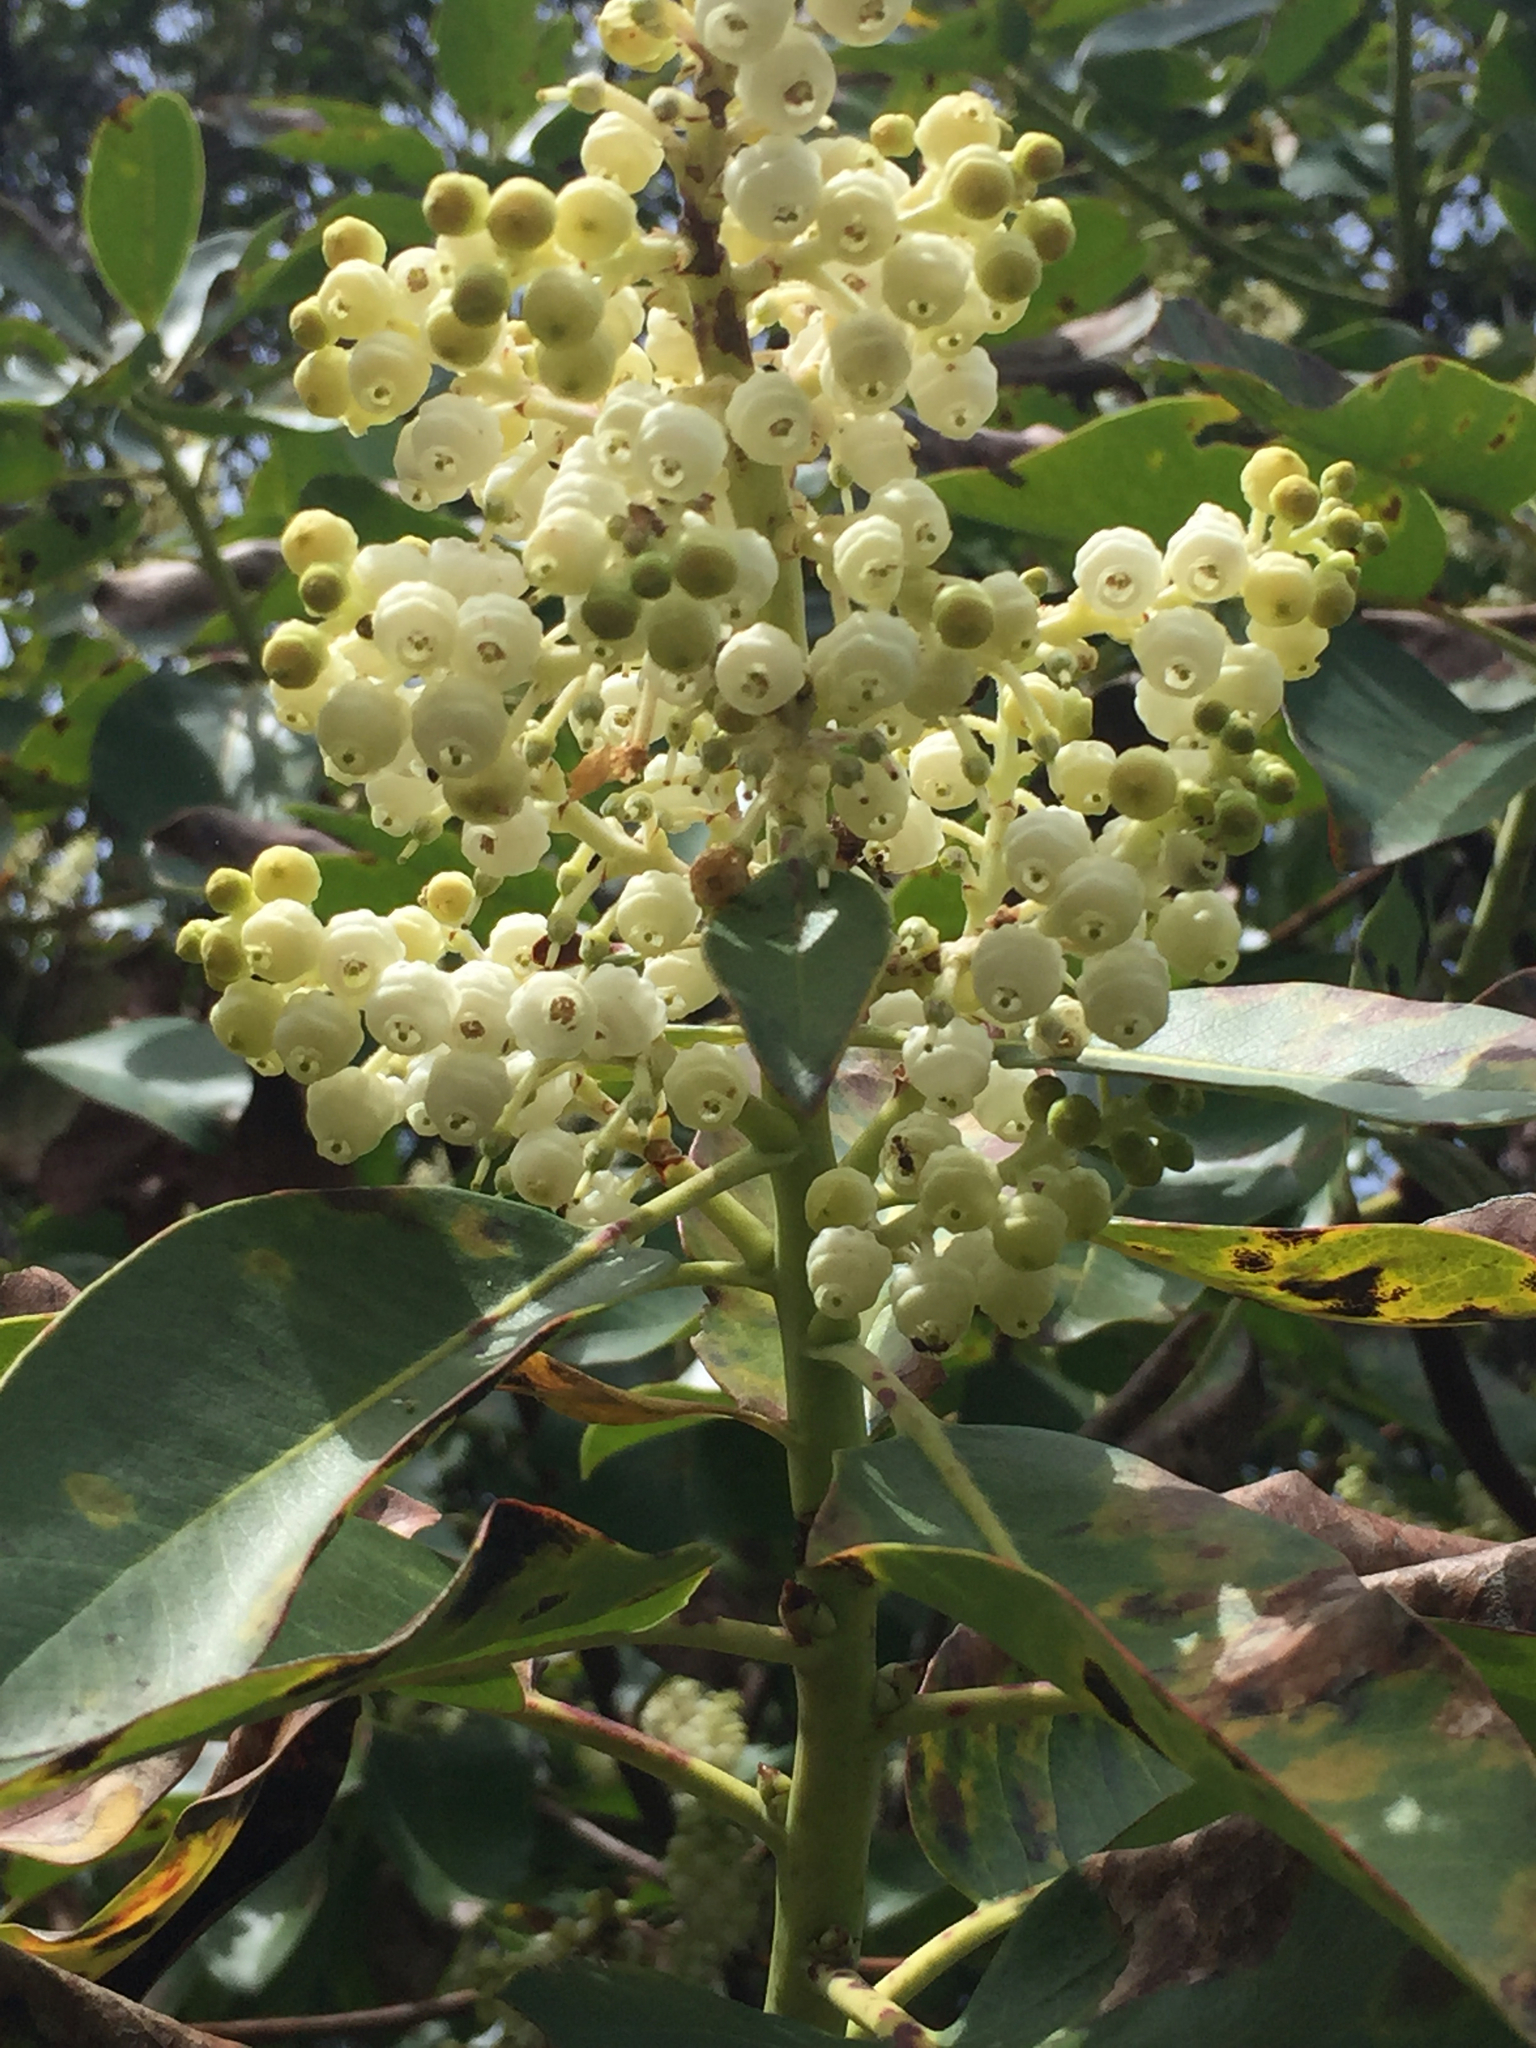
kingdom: Plantae
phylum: Tracheophyta
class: Magnoliopsida
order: Ericales
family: Ericaceae
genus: Arbutus
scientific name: Arbutus menziesii
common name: Pacific madrone
